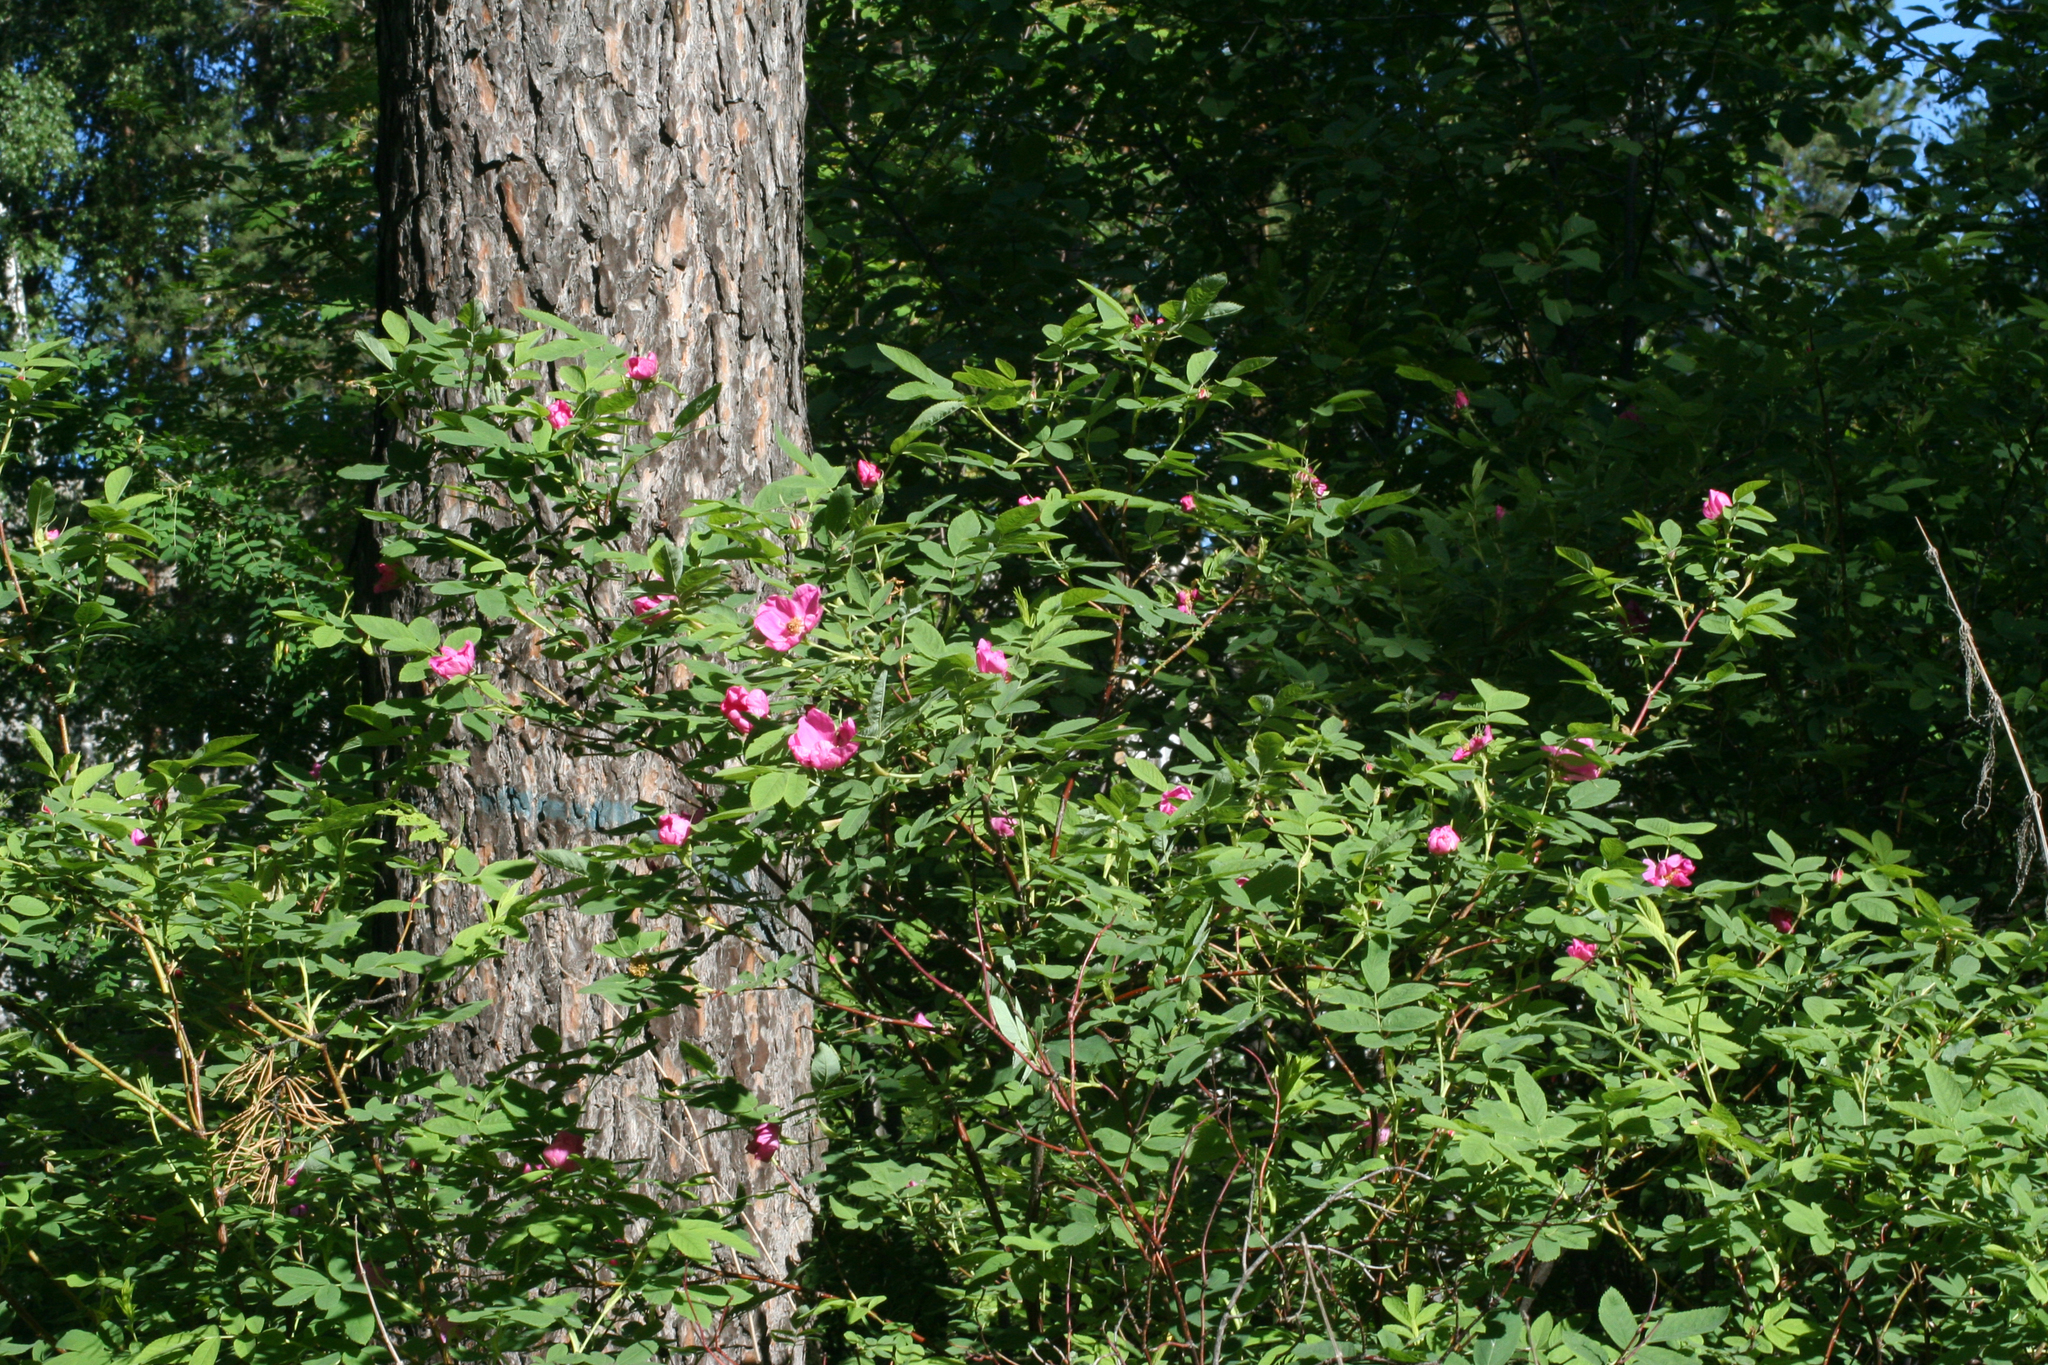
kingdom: Plantae
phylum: Tracheophyta
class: Magnoliopsida
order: Rosales
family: Rosaceae
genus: Rosa
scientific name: Rosa majalis
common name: Cinnamon rose
